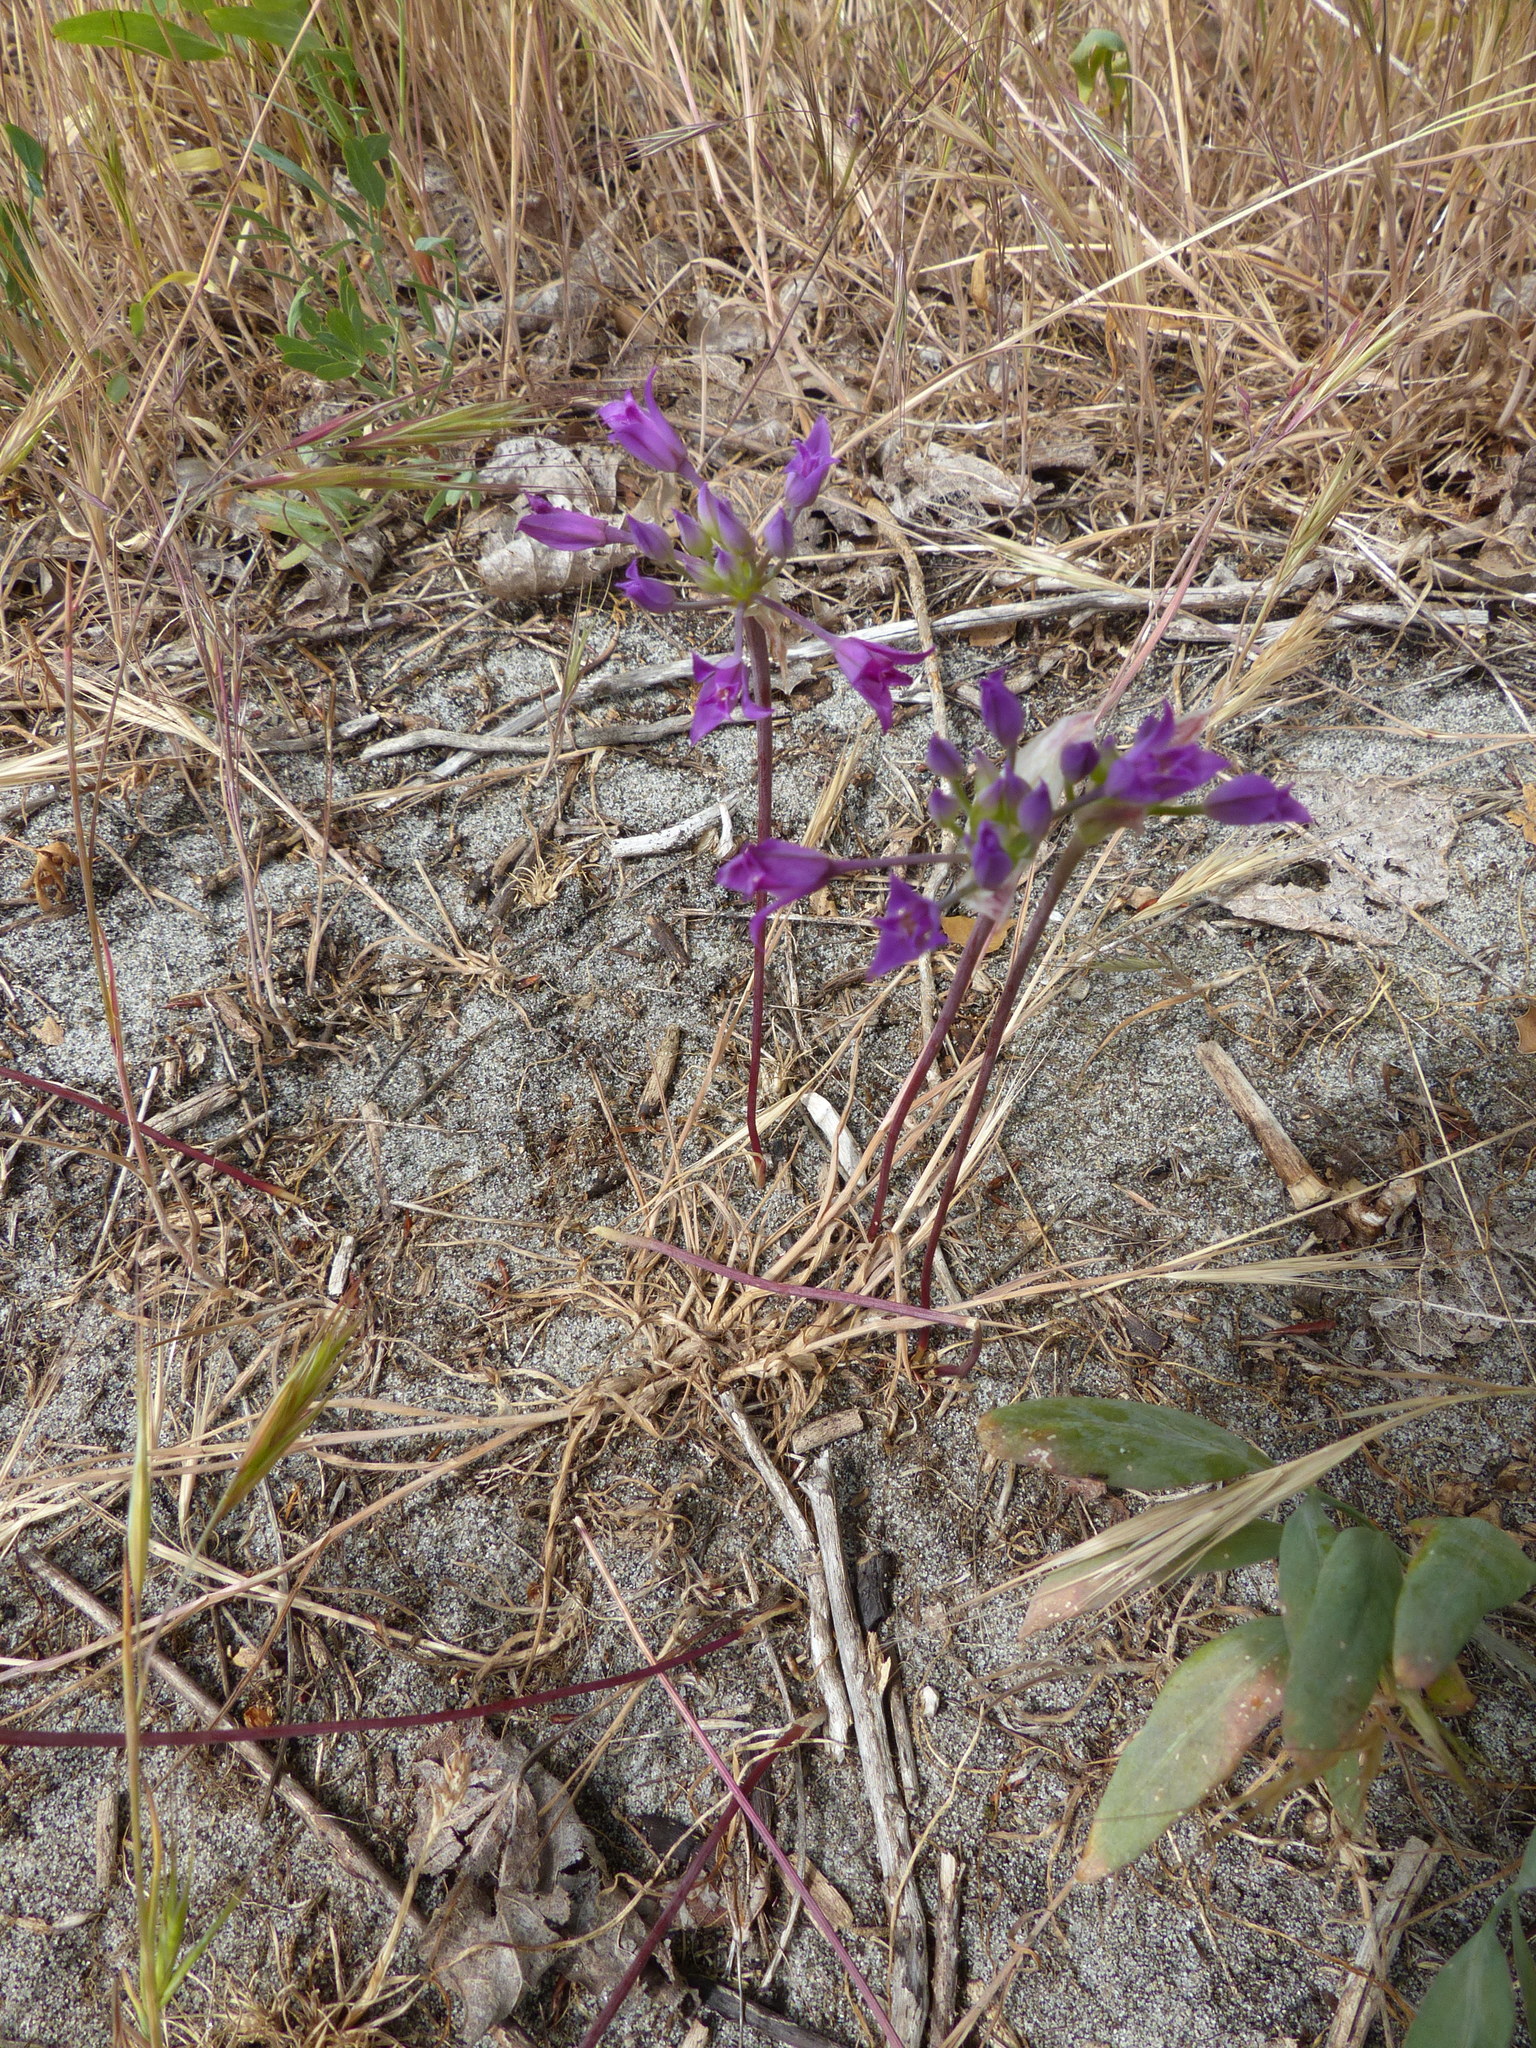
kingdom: Plantae
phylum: Tracheophyta
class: Liliopsida
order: Asparagales
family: Amaryllidaceae
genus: Allium
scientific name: Allium acuminatum
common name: Hooker's onion
